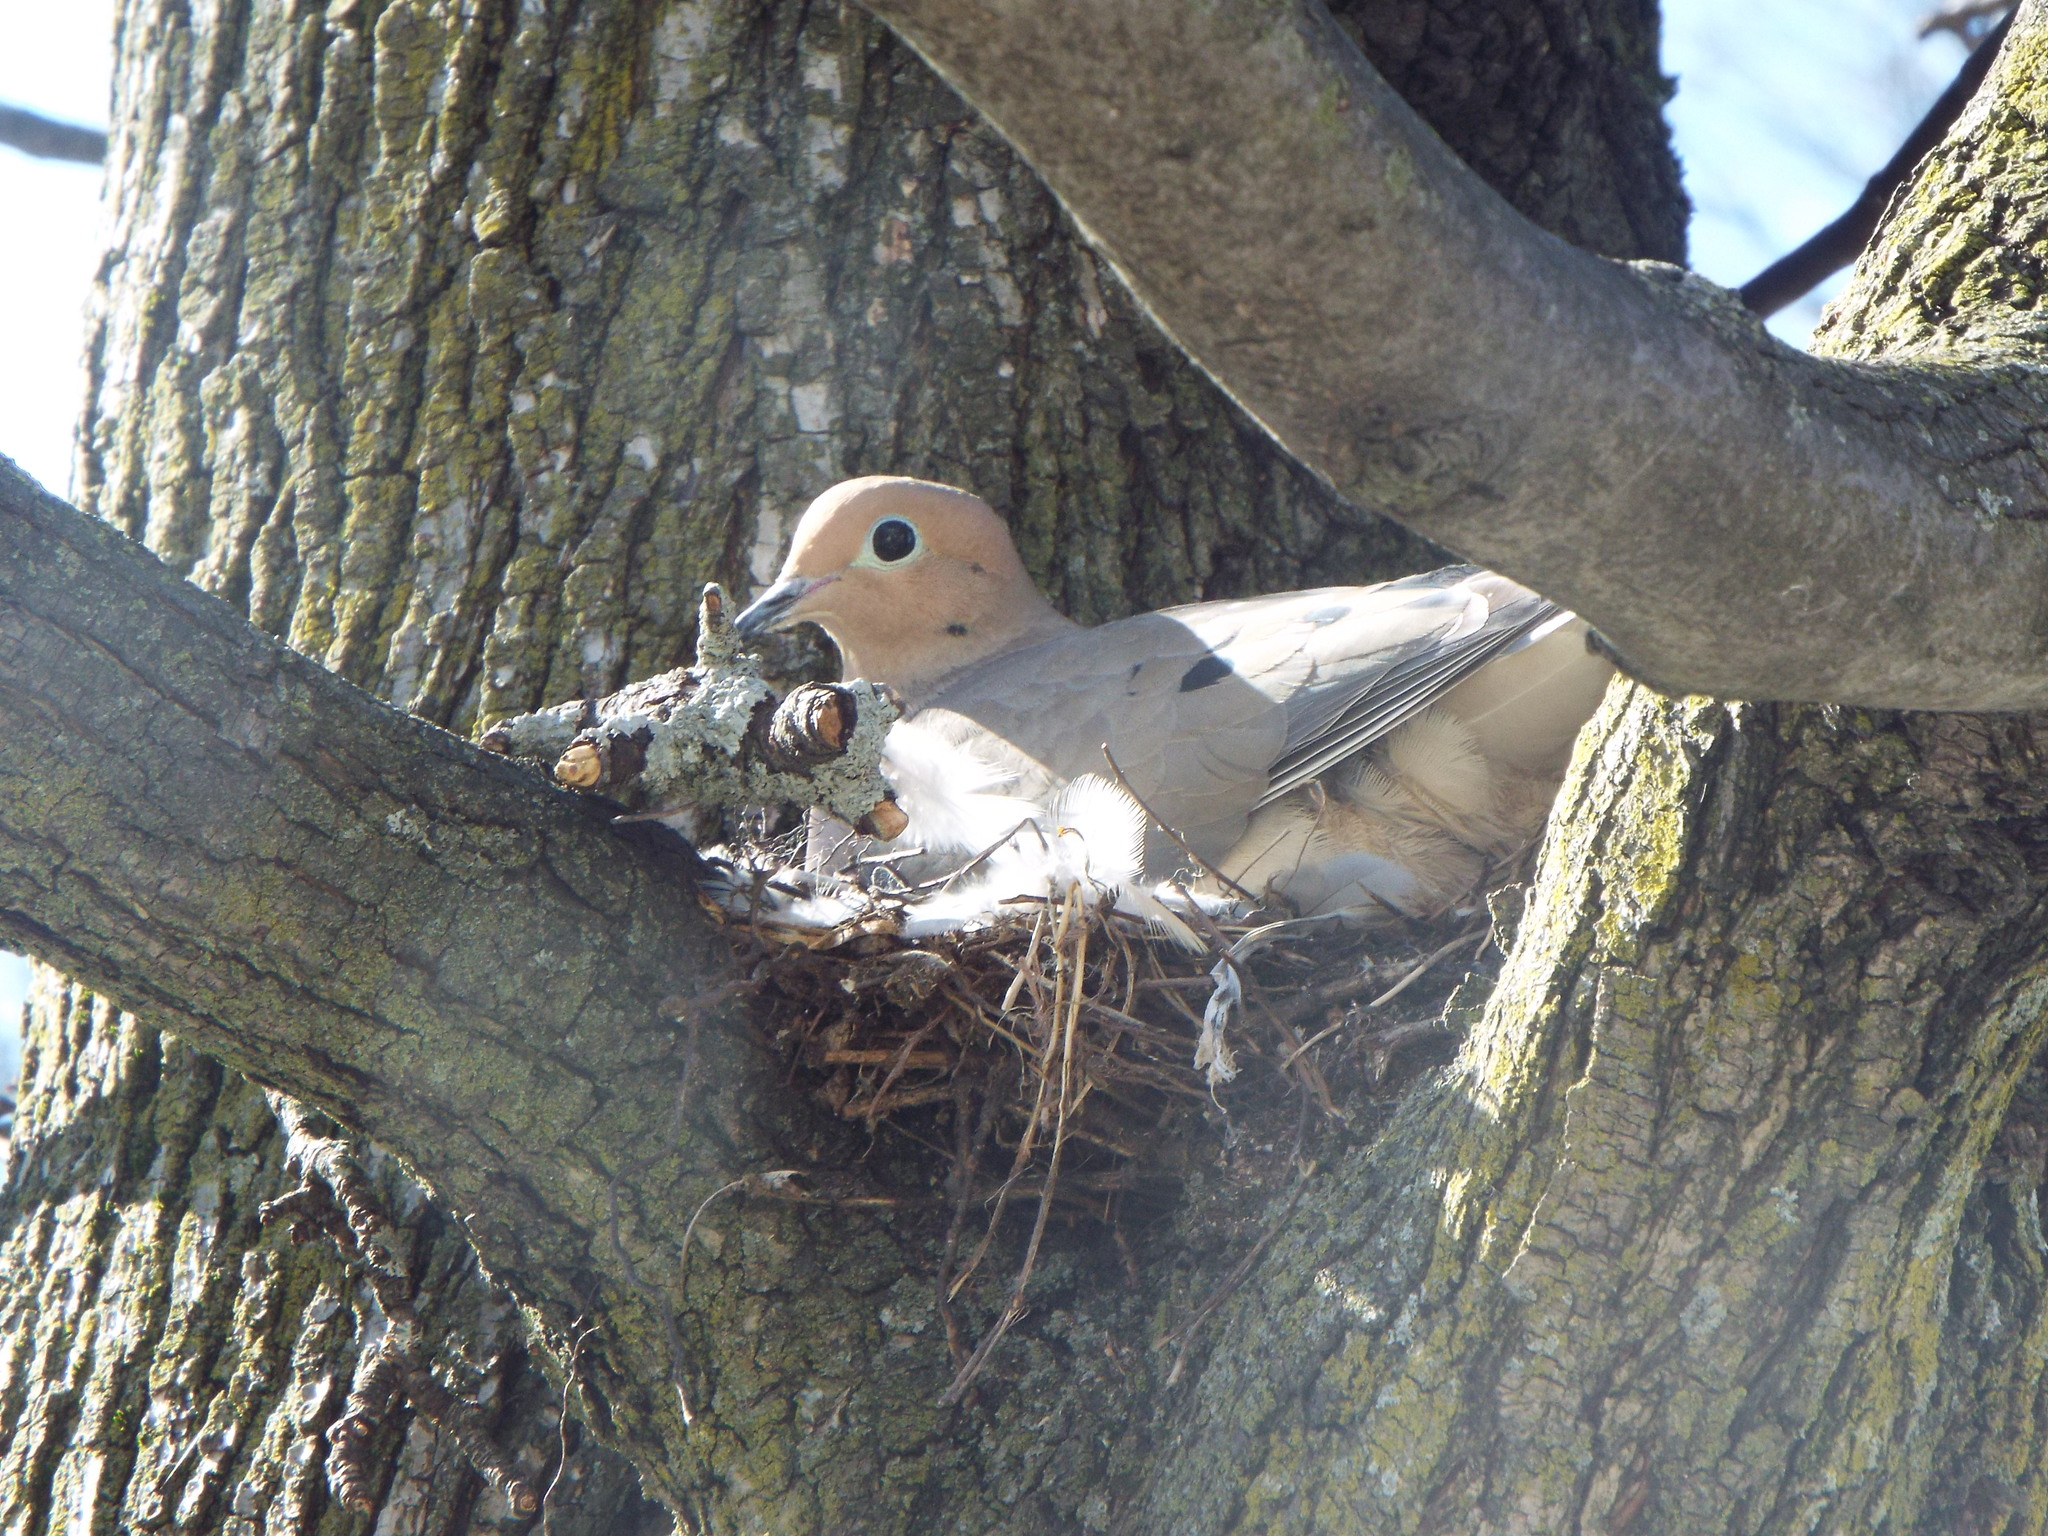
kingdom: Animalia
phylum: Chordata
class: Aves
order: Columbiformes
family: Columbidae
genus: Zenaida
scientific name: Zenaida macroura
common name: Mourning dove
